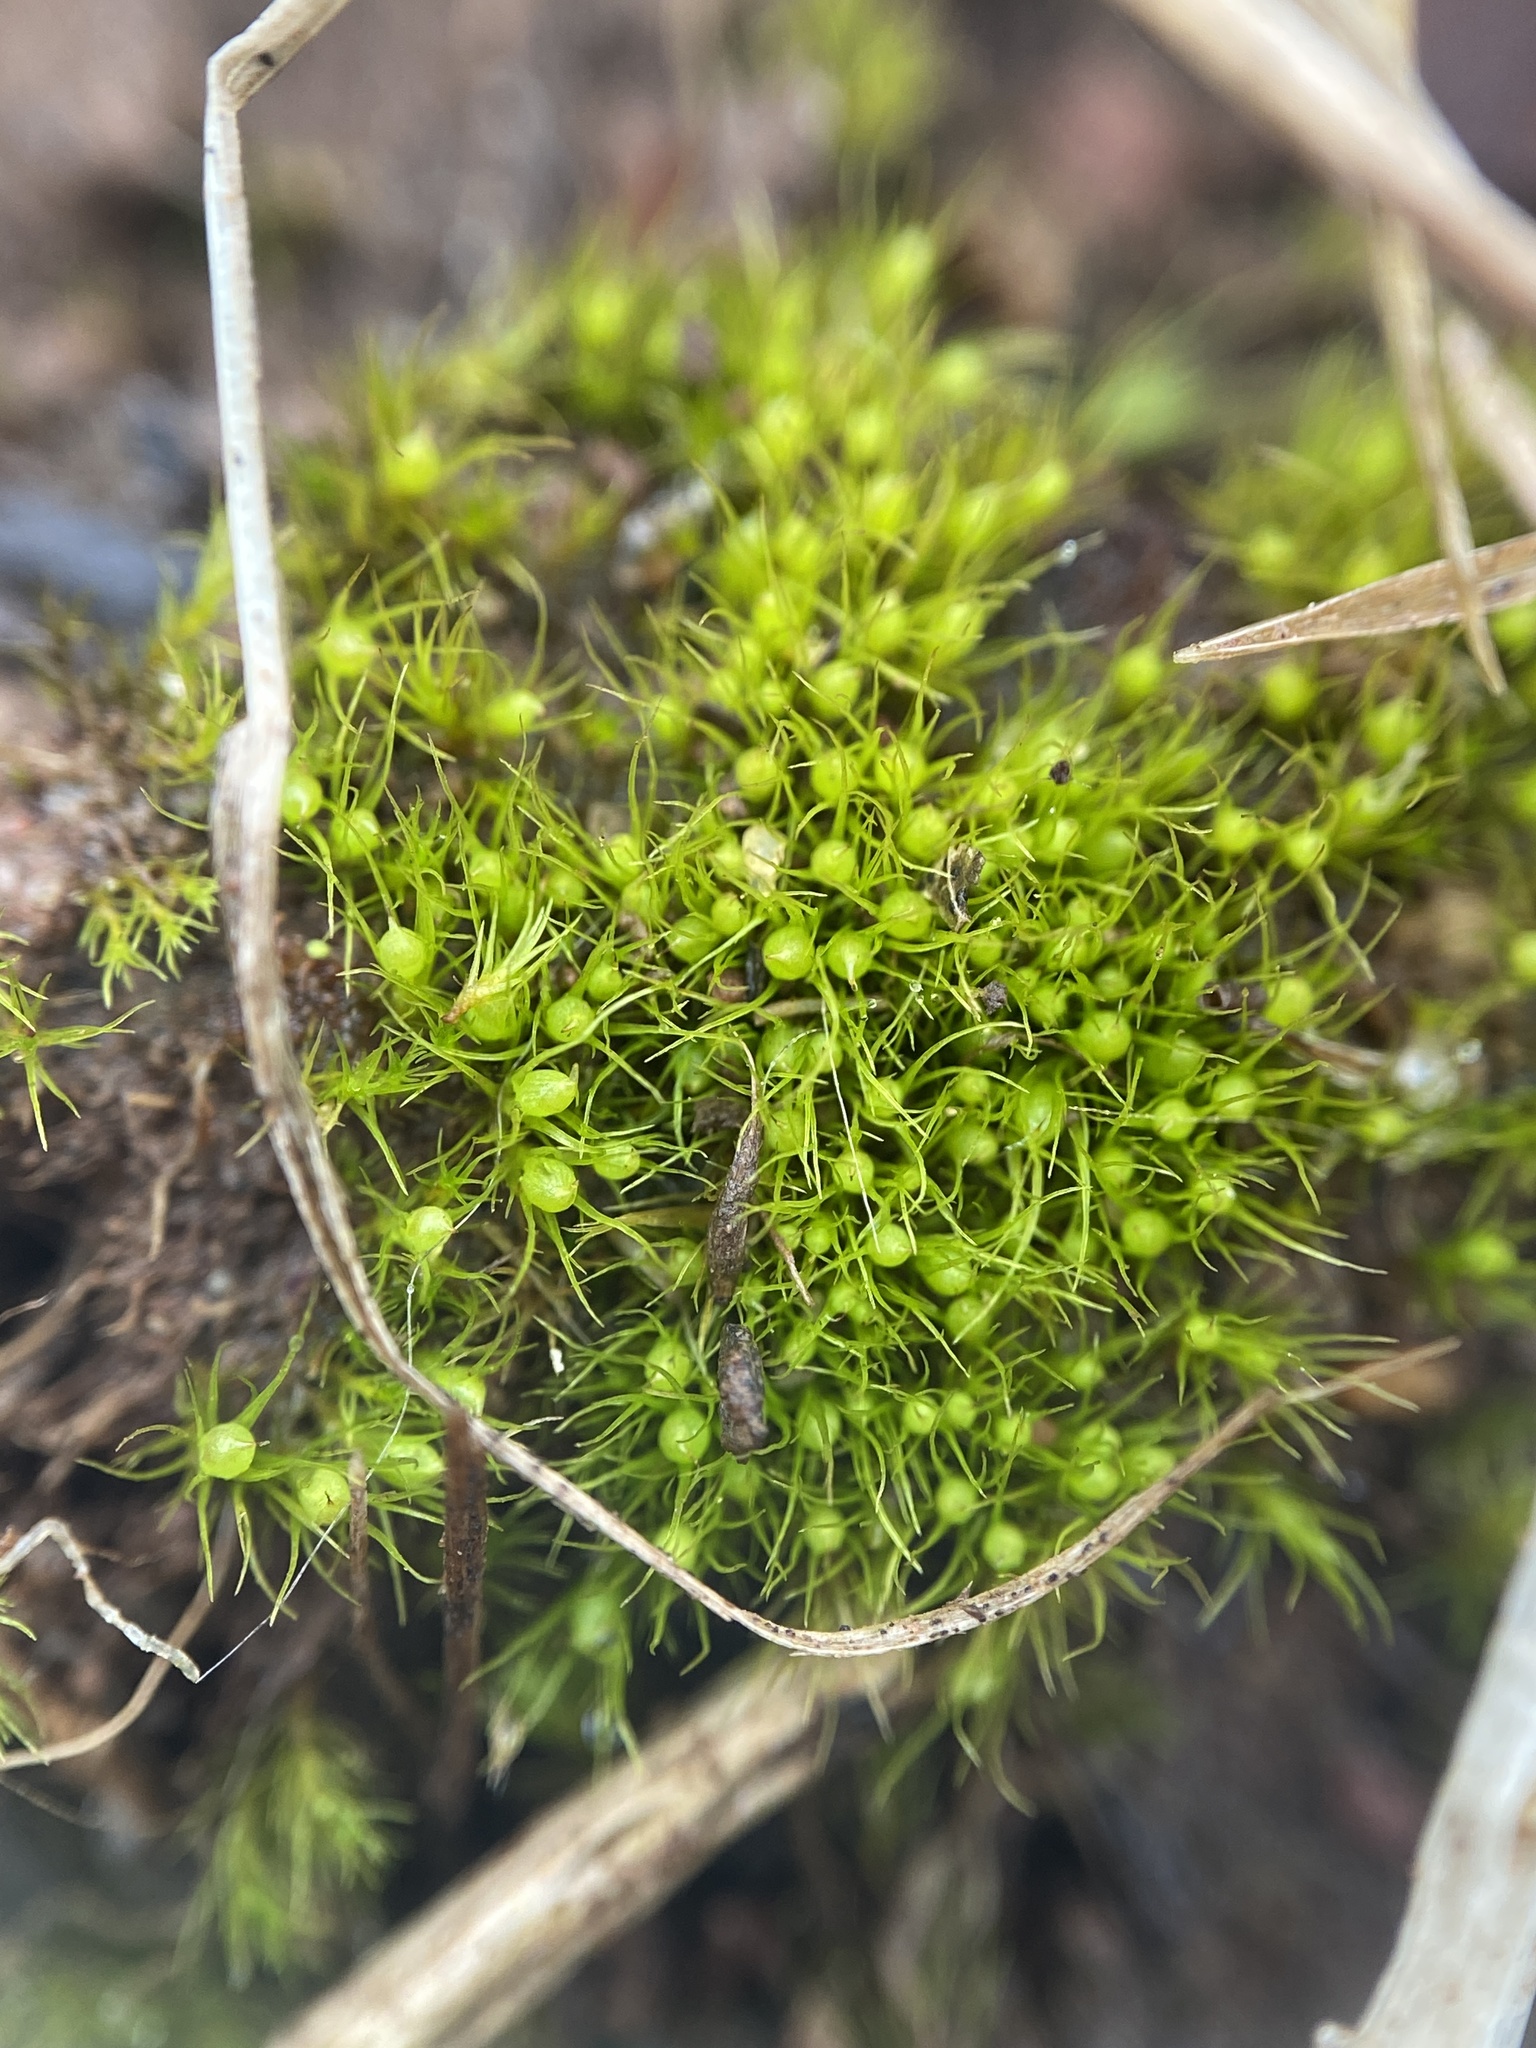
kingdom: Plantae
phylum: Bryophyta
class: Bryopsida
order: Dicranales
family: Ditrichaceae
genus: Pleuridium
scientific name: Pleuridium subulatum
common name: Awl-leaved earth-moss
